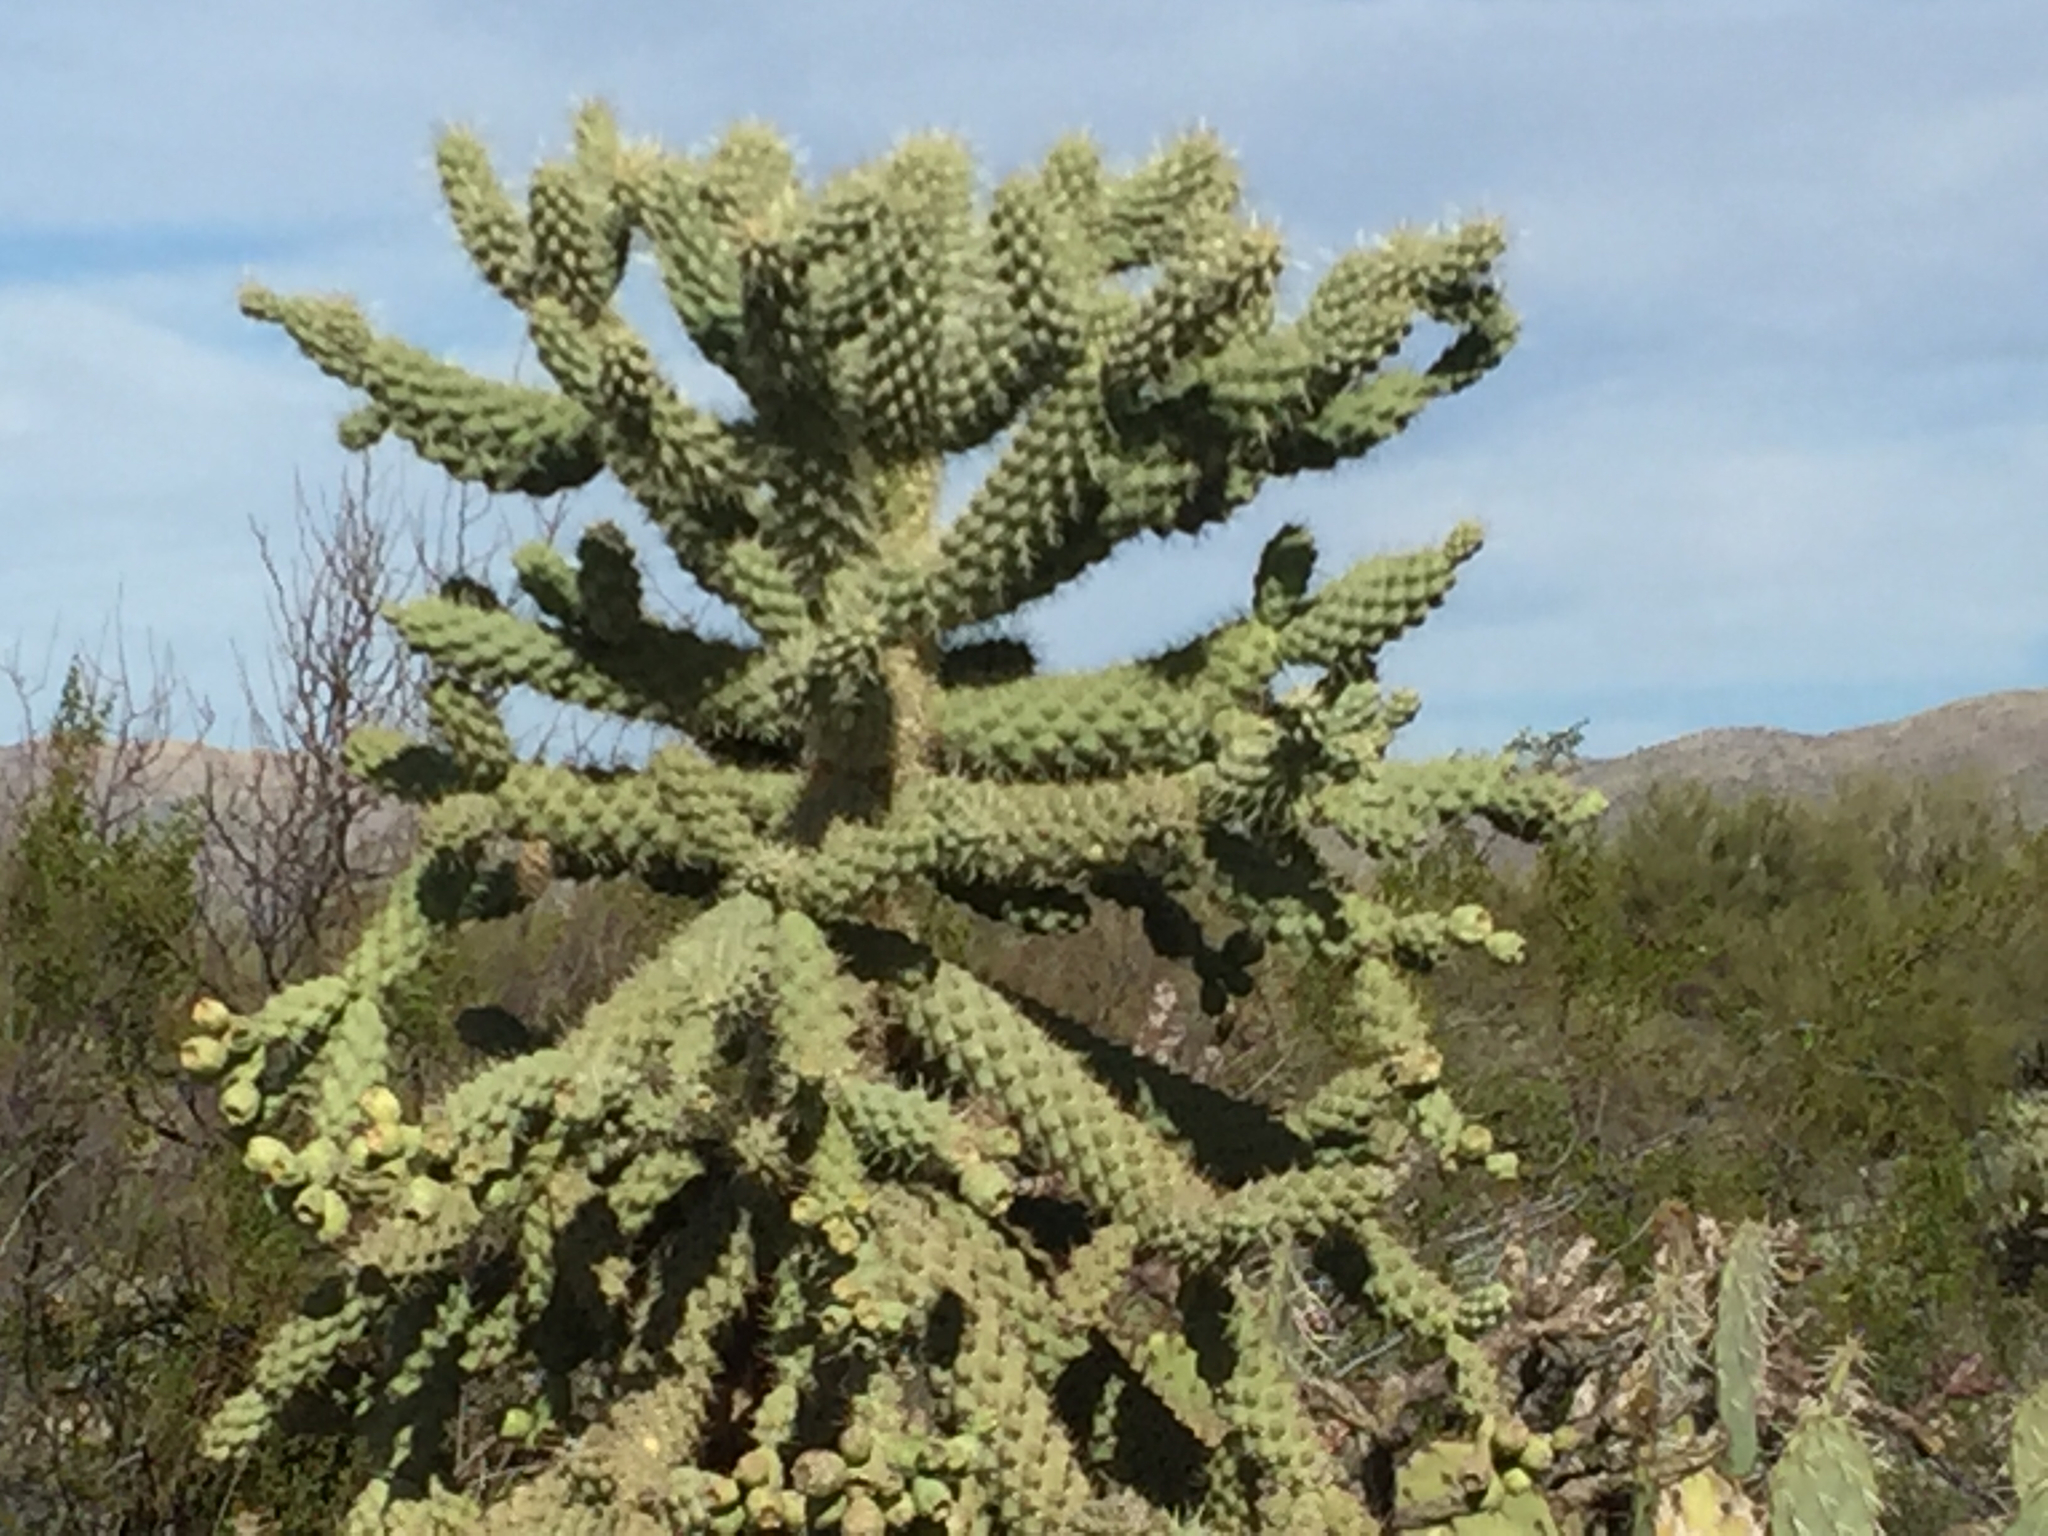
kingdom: Plantae
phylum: Tracheophyta
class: Magnoliopsida
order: Caryophyllales
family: Cactaceae
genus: Cylindropuntia
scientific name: Cylindropuntia fulgida
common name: Jumping cholla
